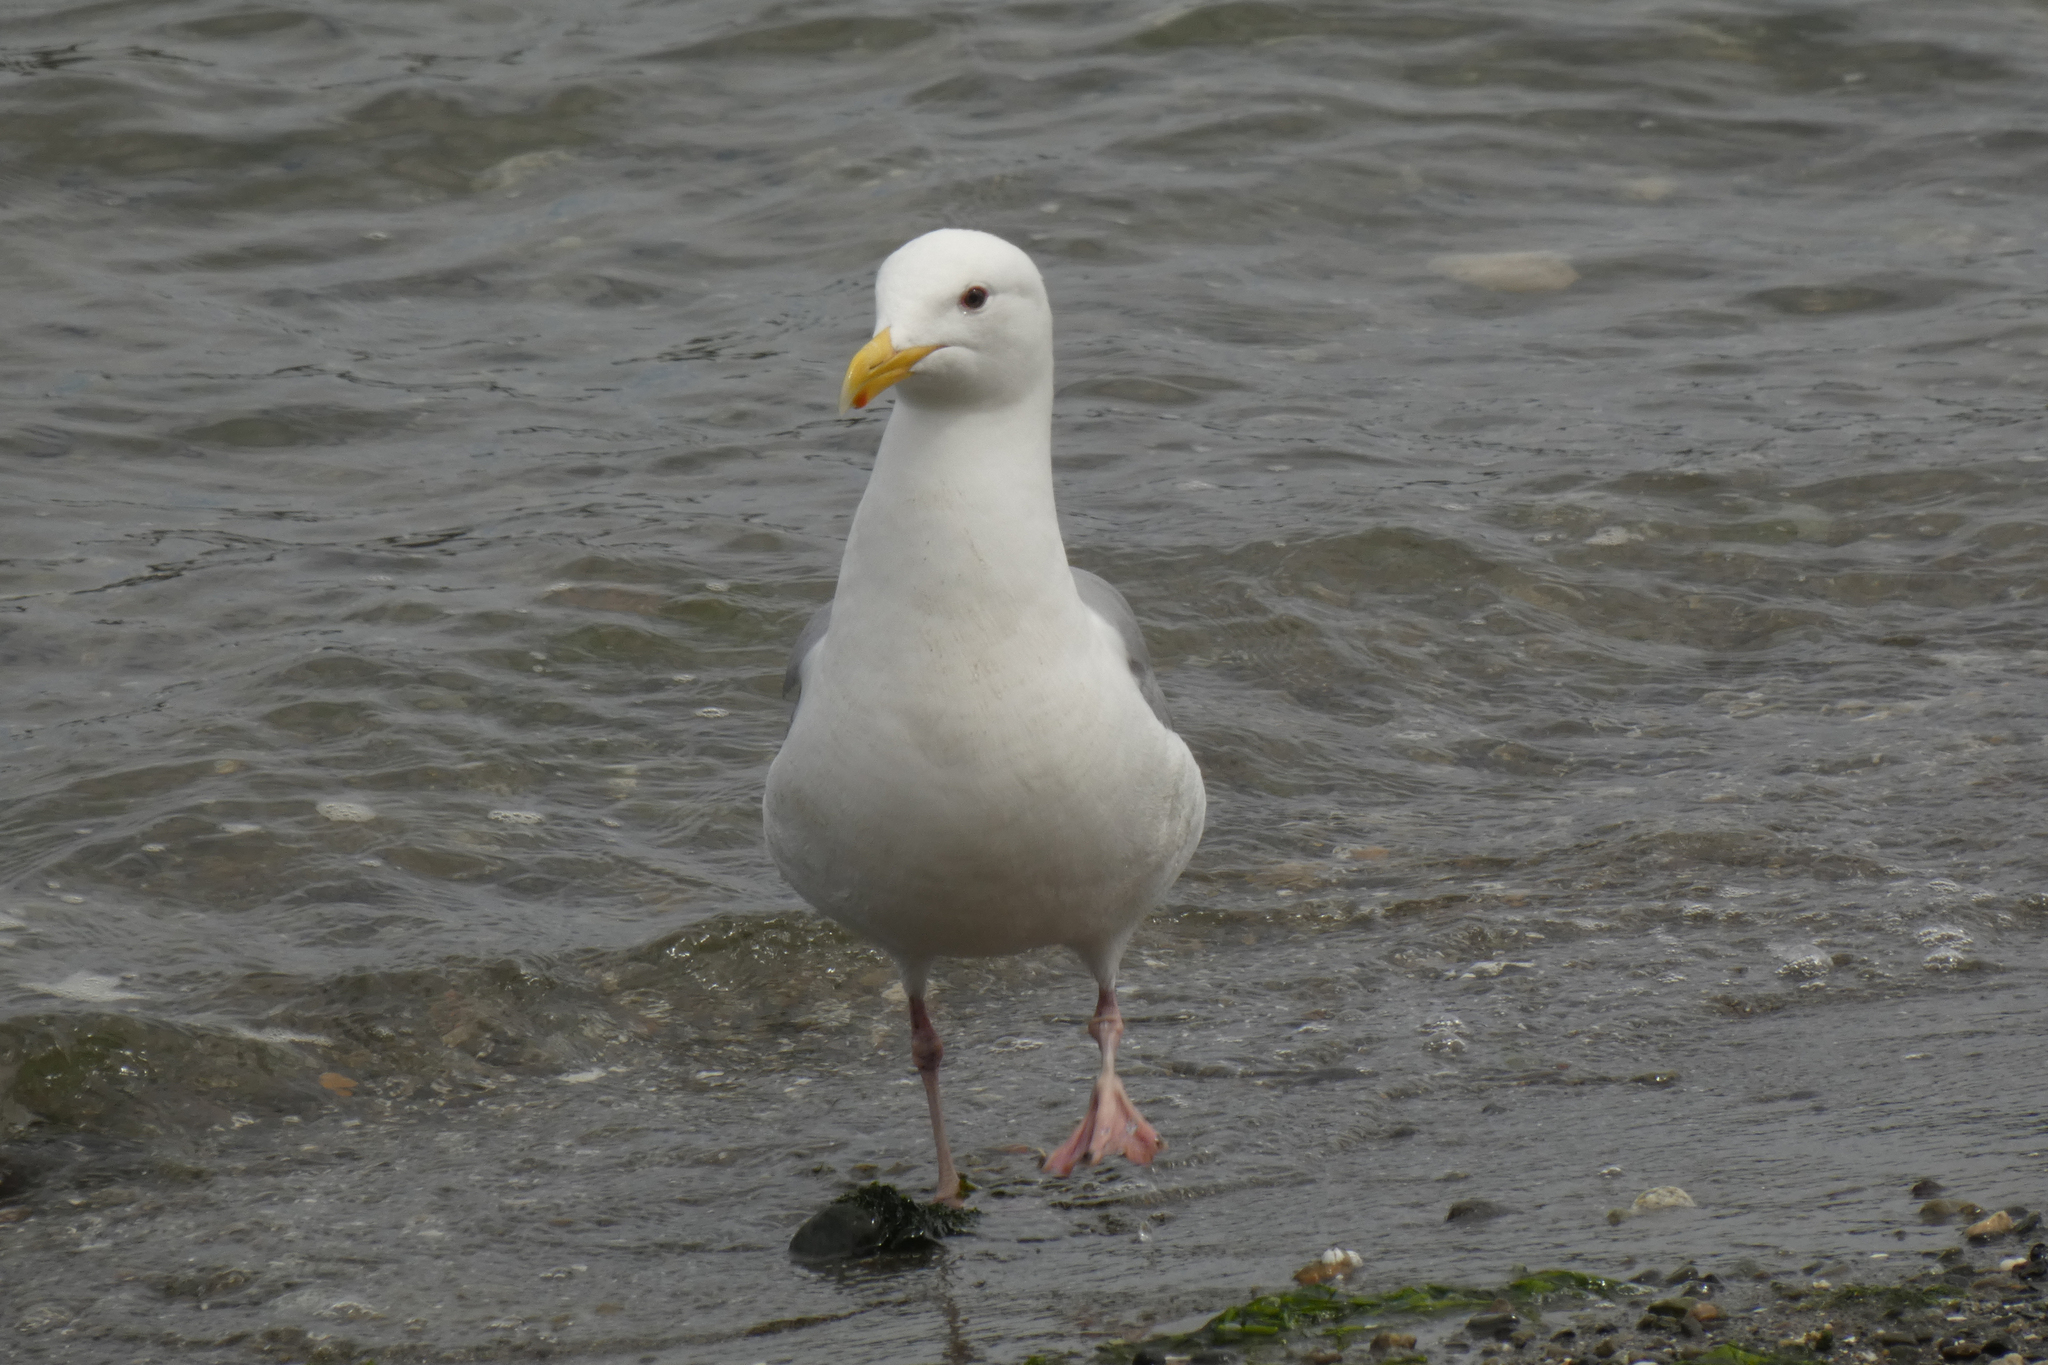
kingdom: Animalia
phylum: Chordata
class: Aves
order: Charadriiformes
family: Laridae
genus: Larus
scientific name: Larus
